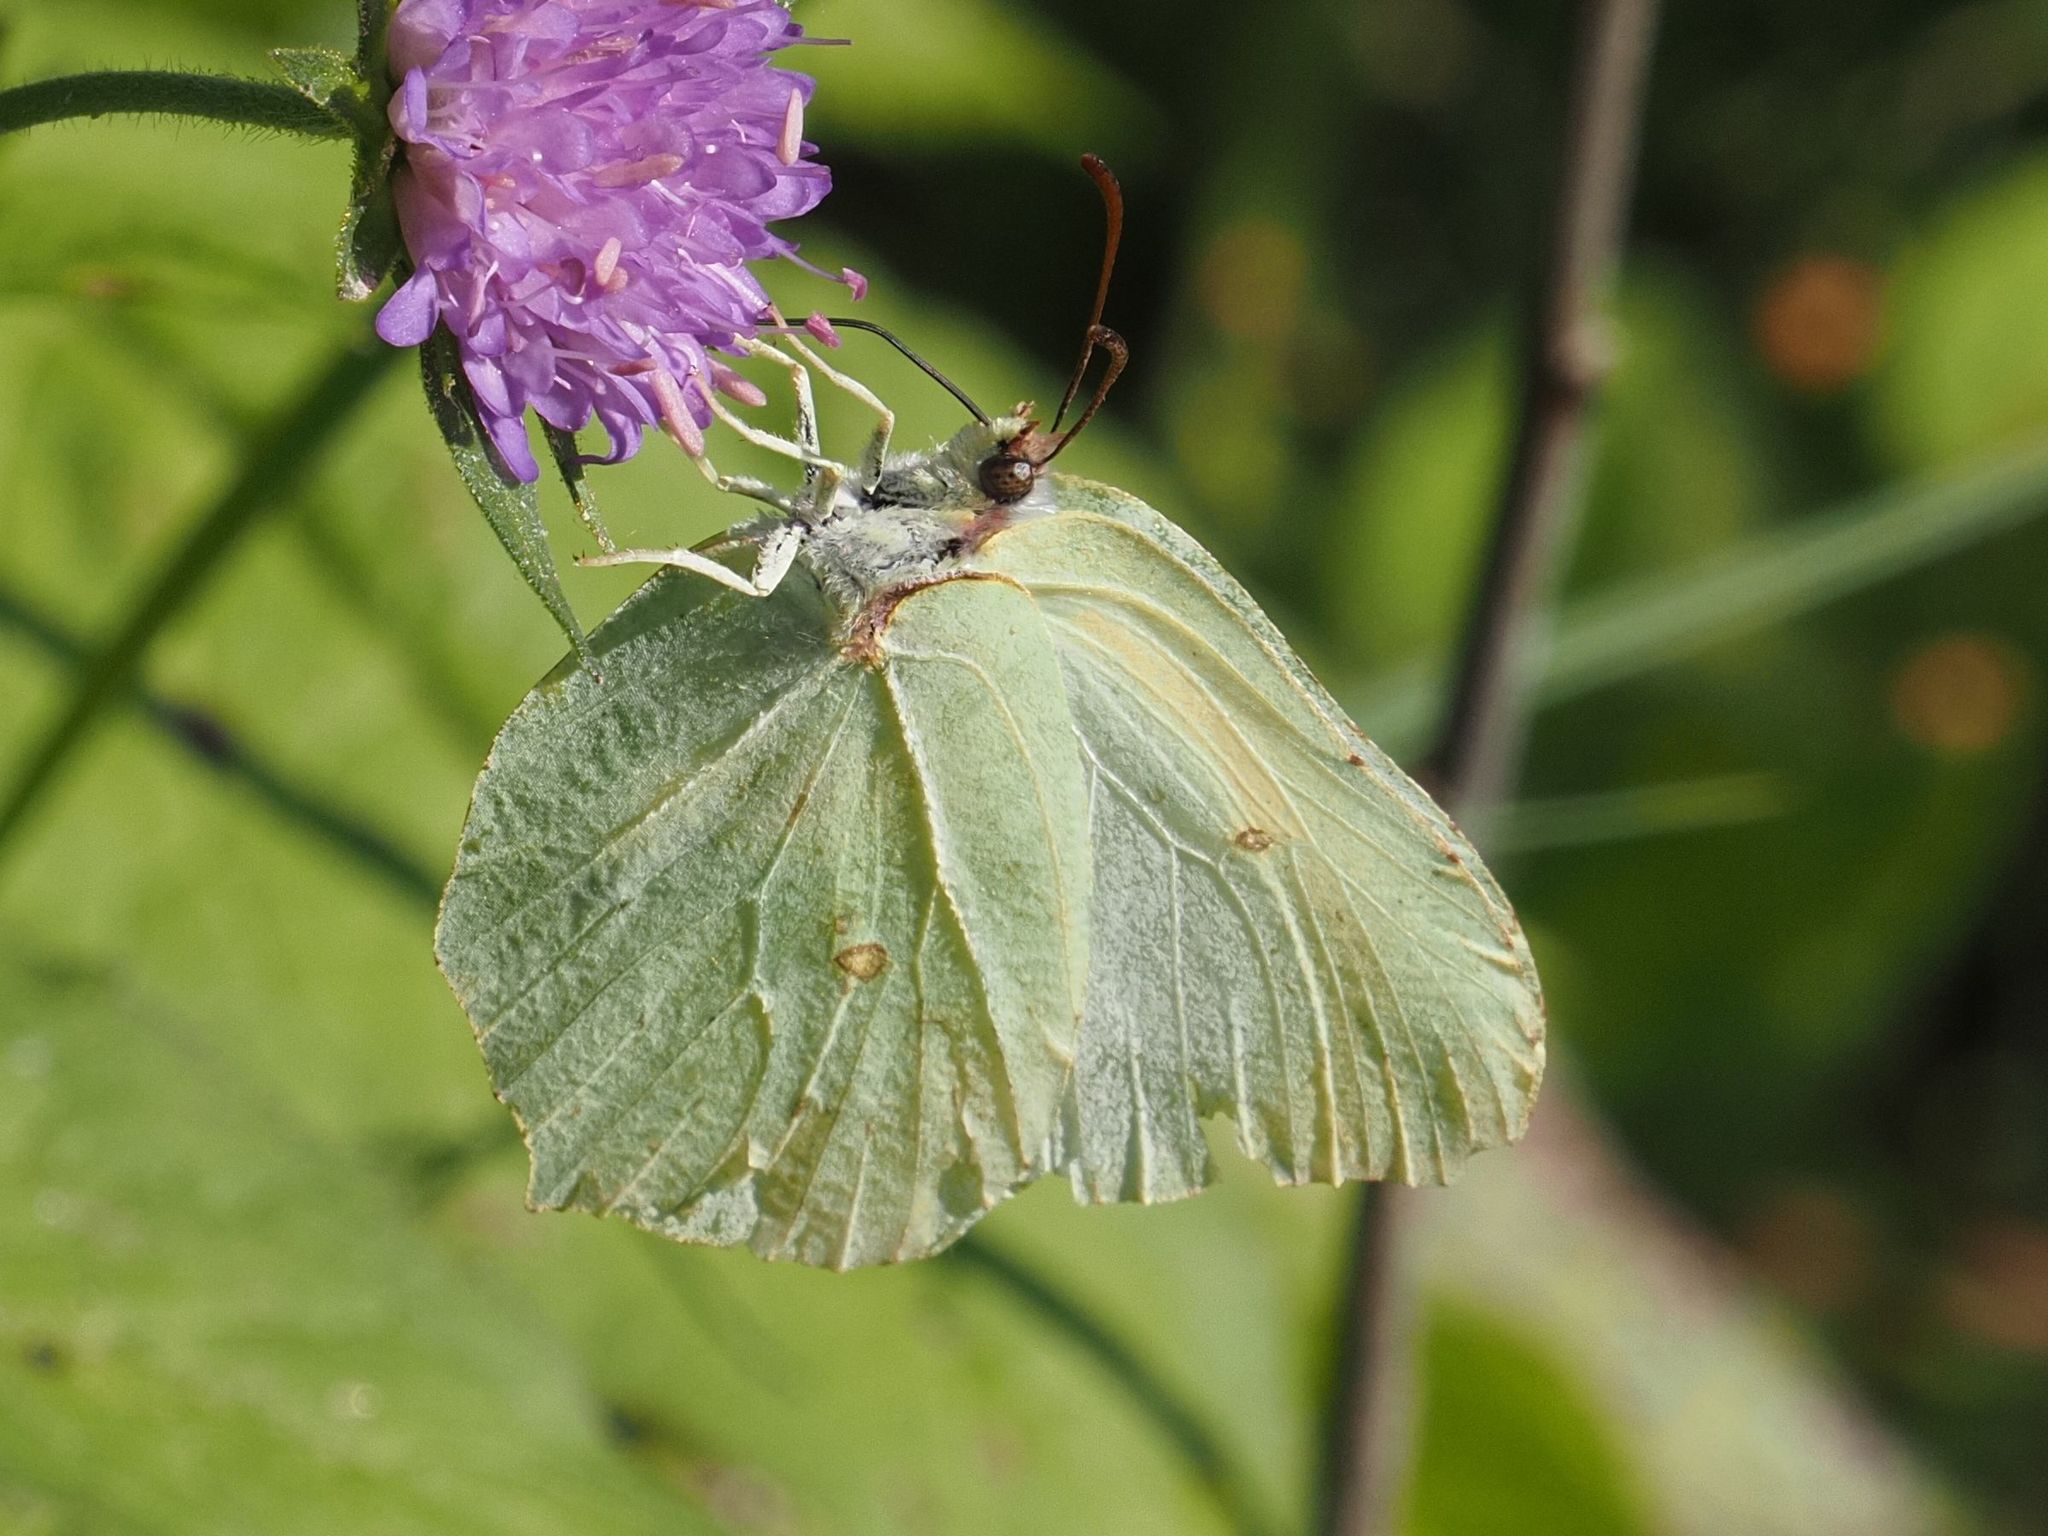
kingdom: Animalia
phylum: Arthropoda
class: Insecta
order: Lepidoptera
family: Pieridae
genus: Gonepteryx
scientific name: Gonepteryx rhamni
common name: Brimstone
